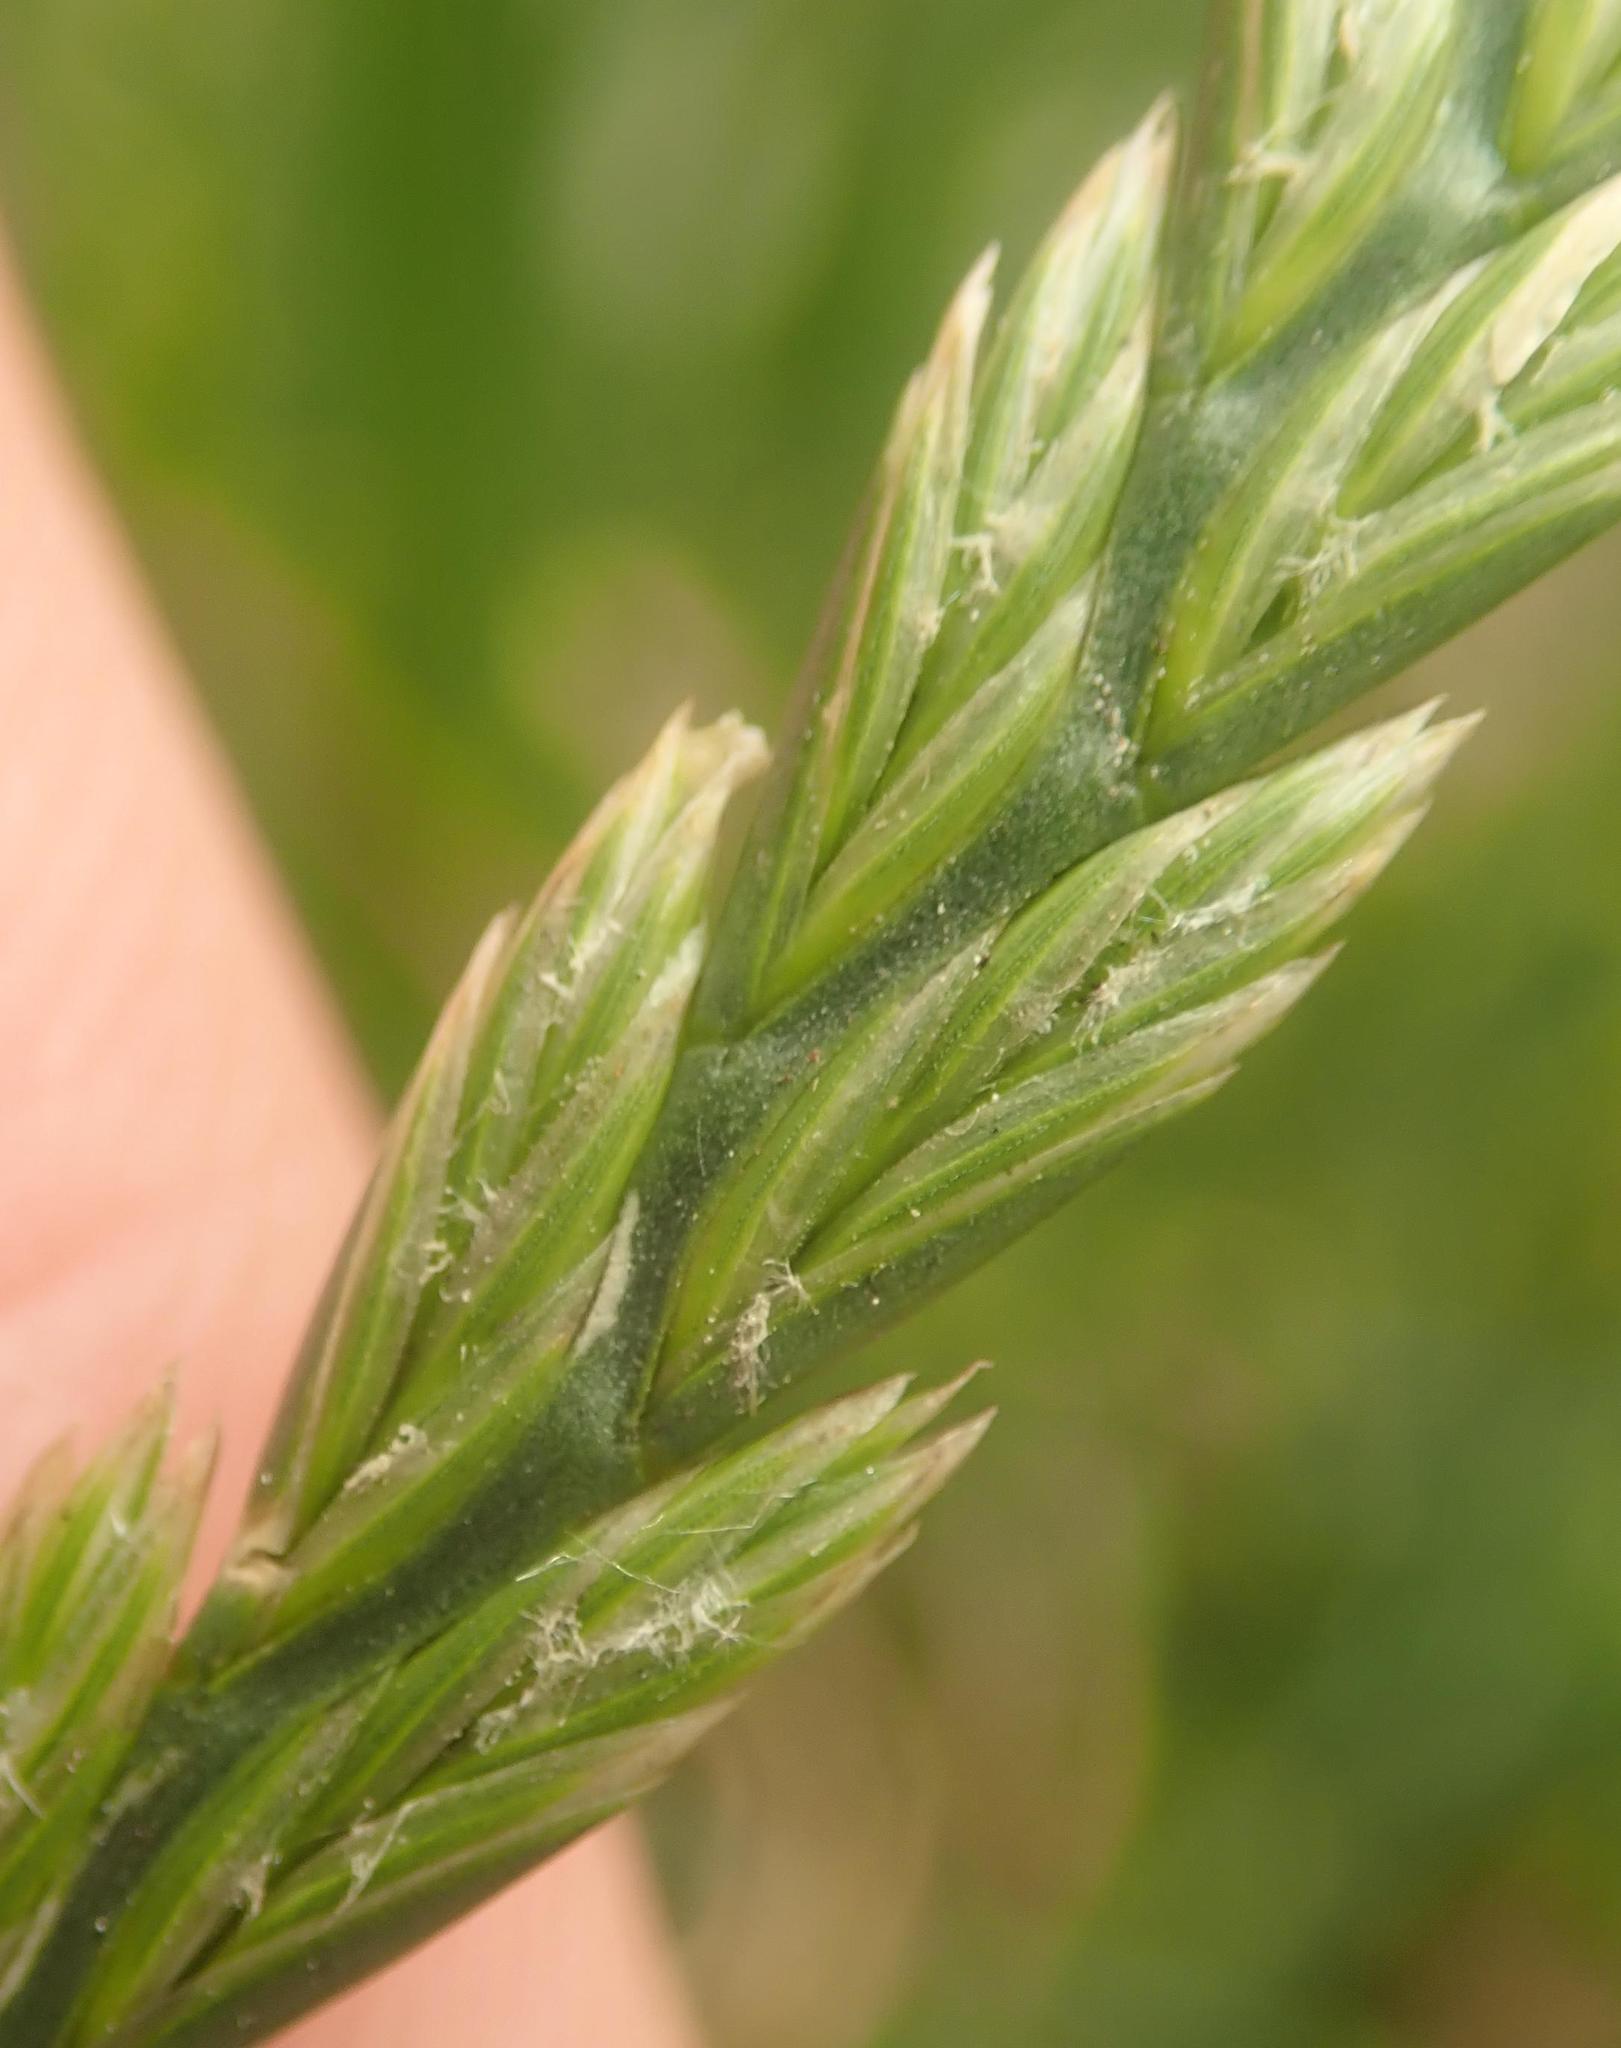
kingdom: Plantae
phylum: Tracheophyta
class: Liliopsida
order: Poales
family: Poaceae
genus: Lolium
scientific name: Lolium perenne
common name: Perennial ryegrass
